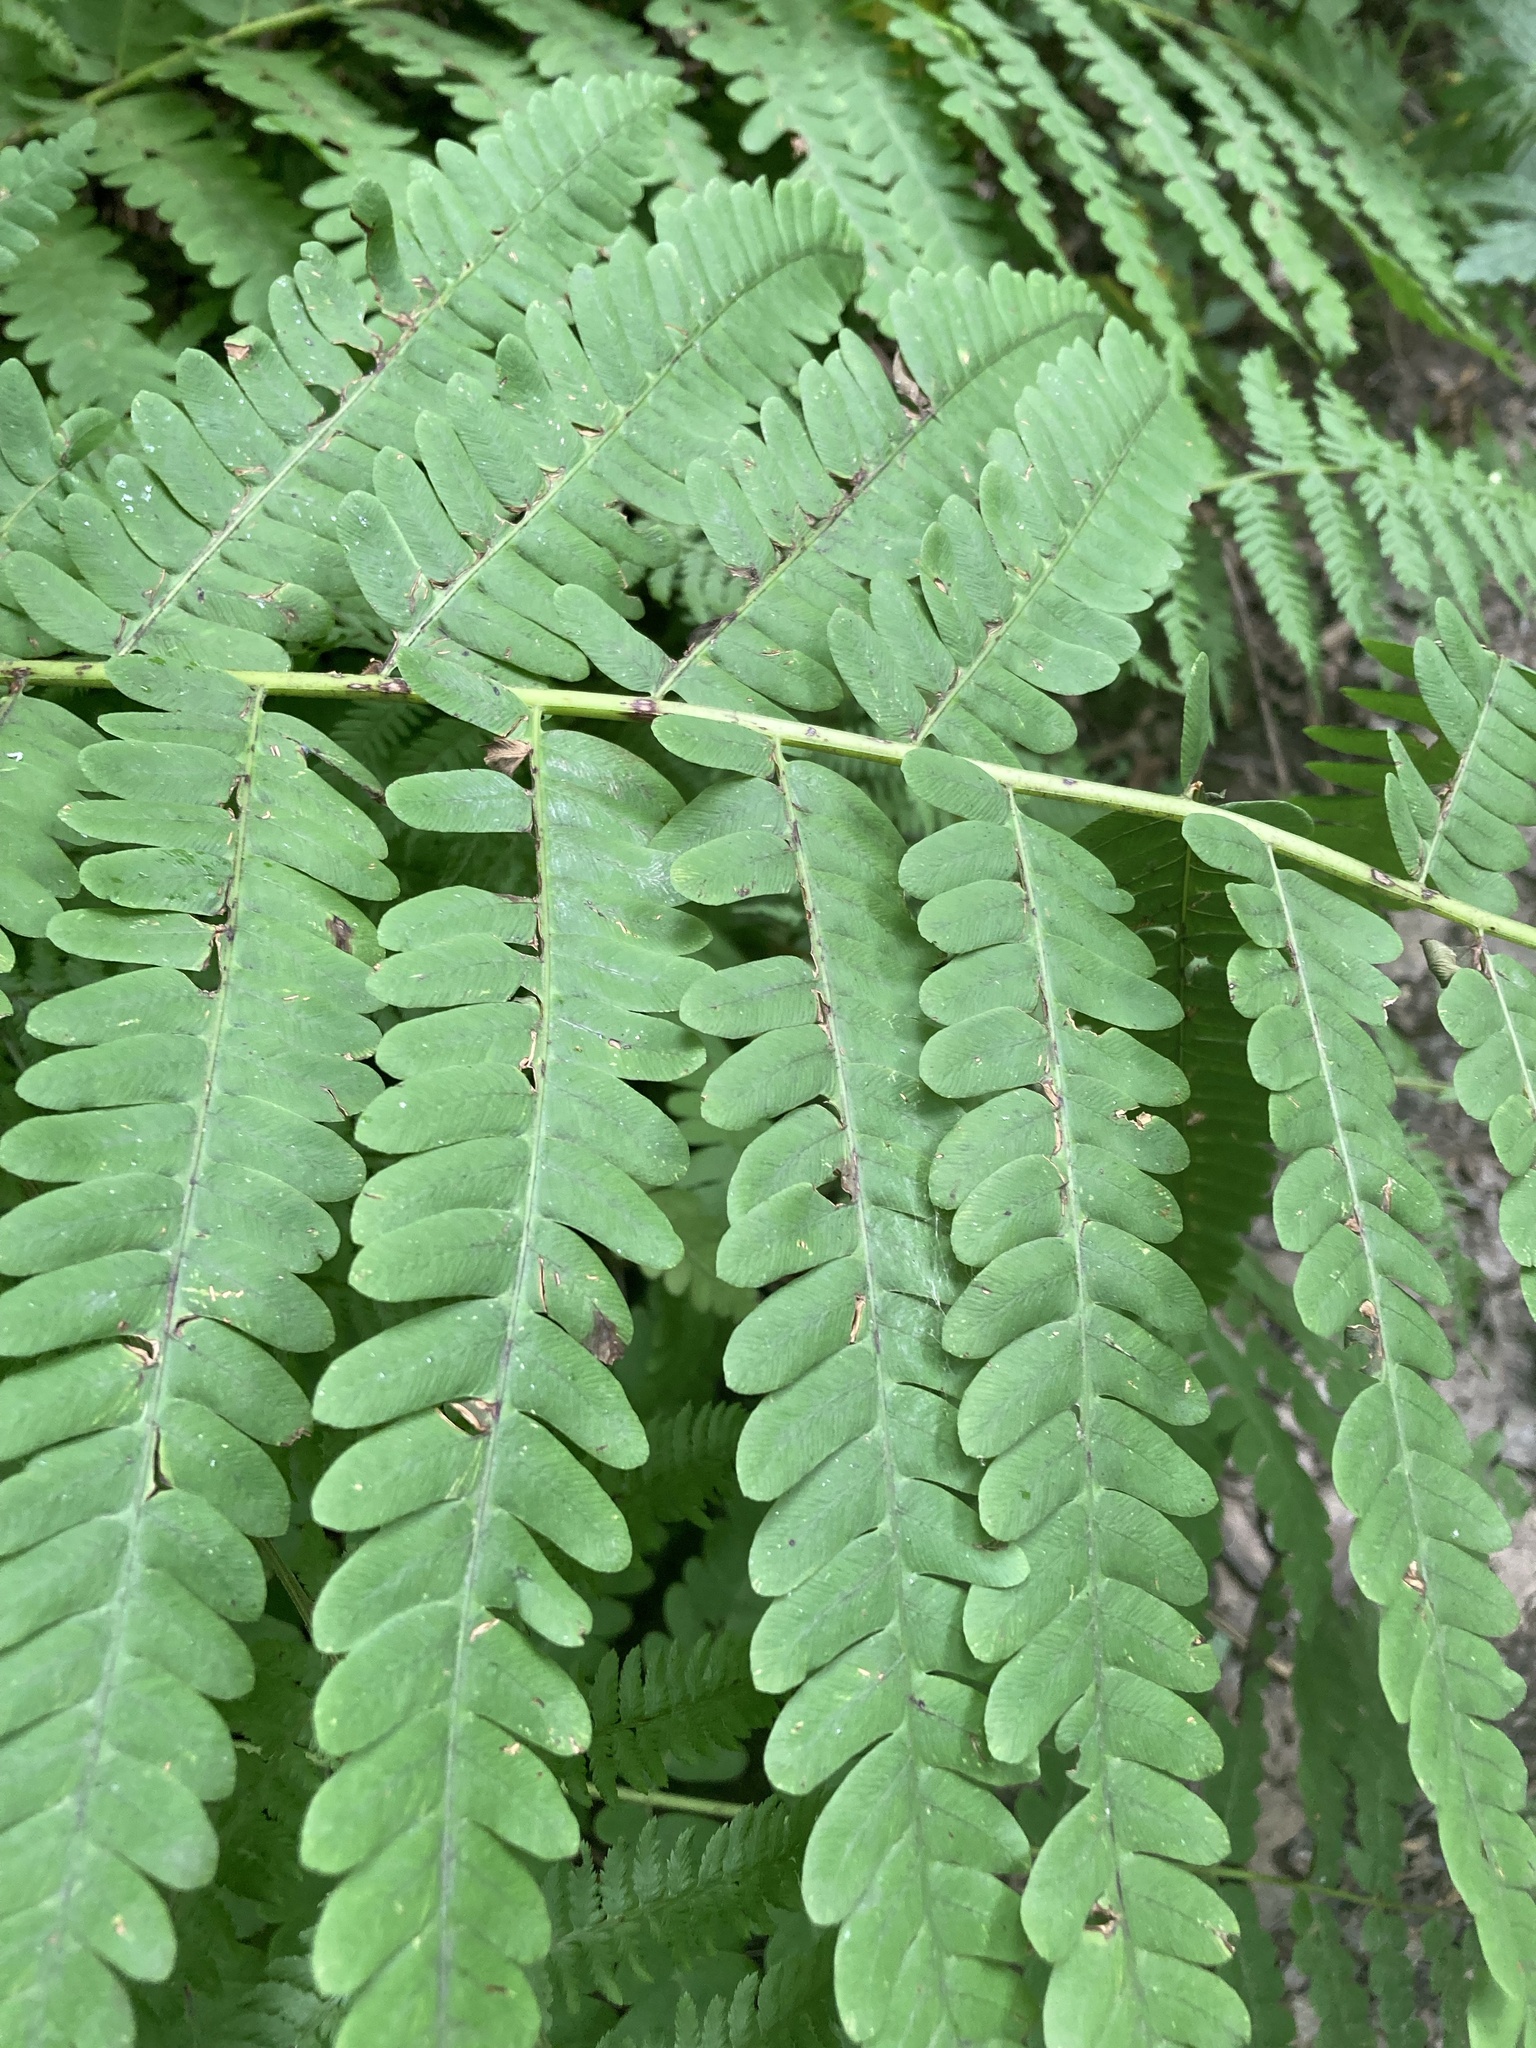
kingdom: Plantae
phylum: Tracheophyta
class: Polypodiopsida
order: Osmundales
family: Osmundaceae
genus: Claytosmunda
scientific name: Claytosmunda claytoniana
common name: Clayton's fern
